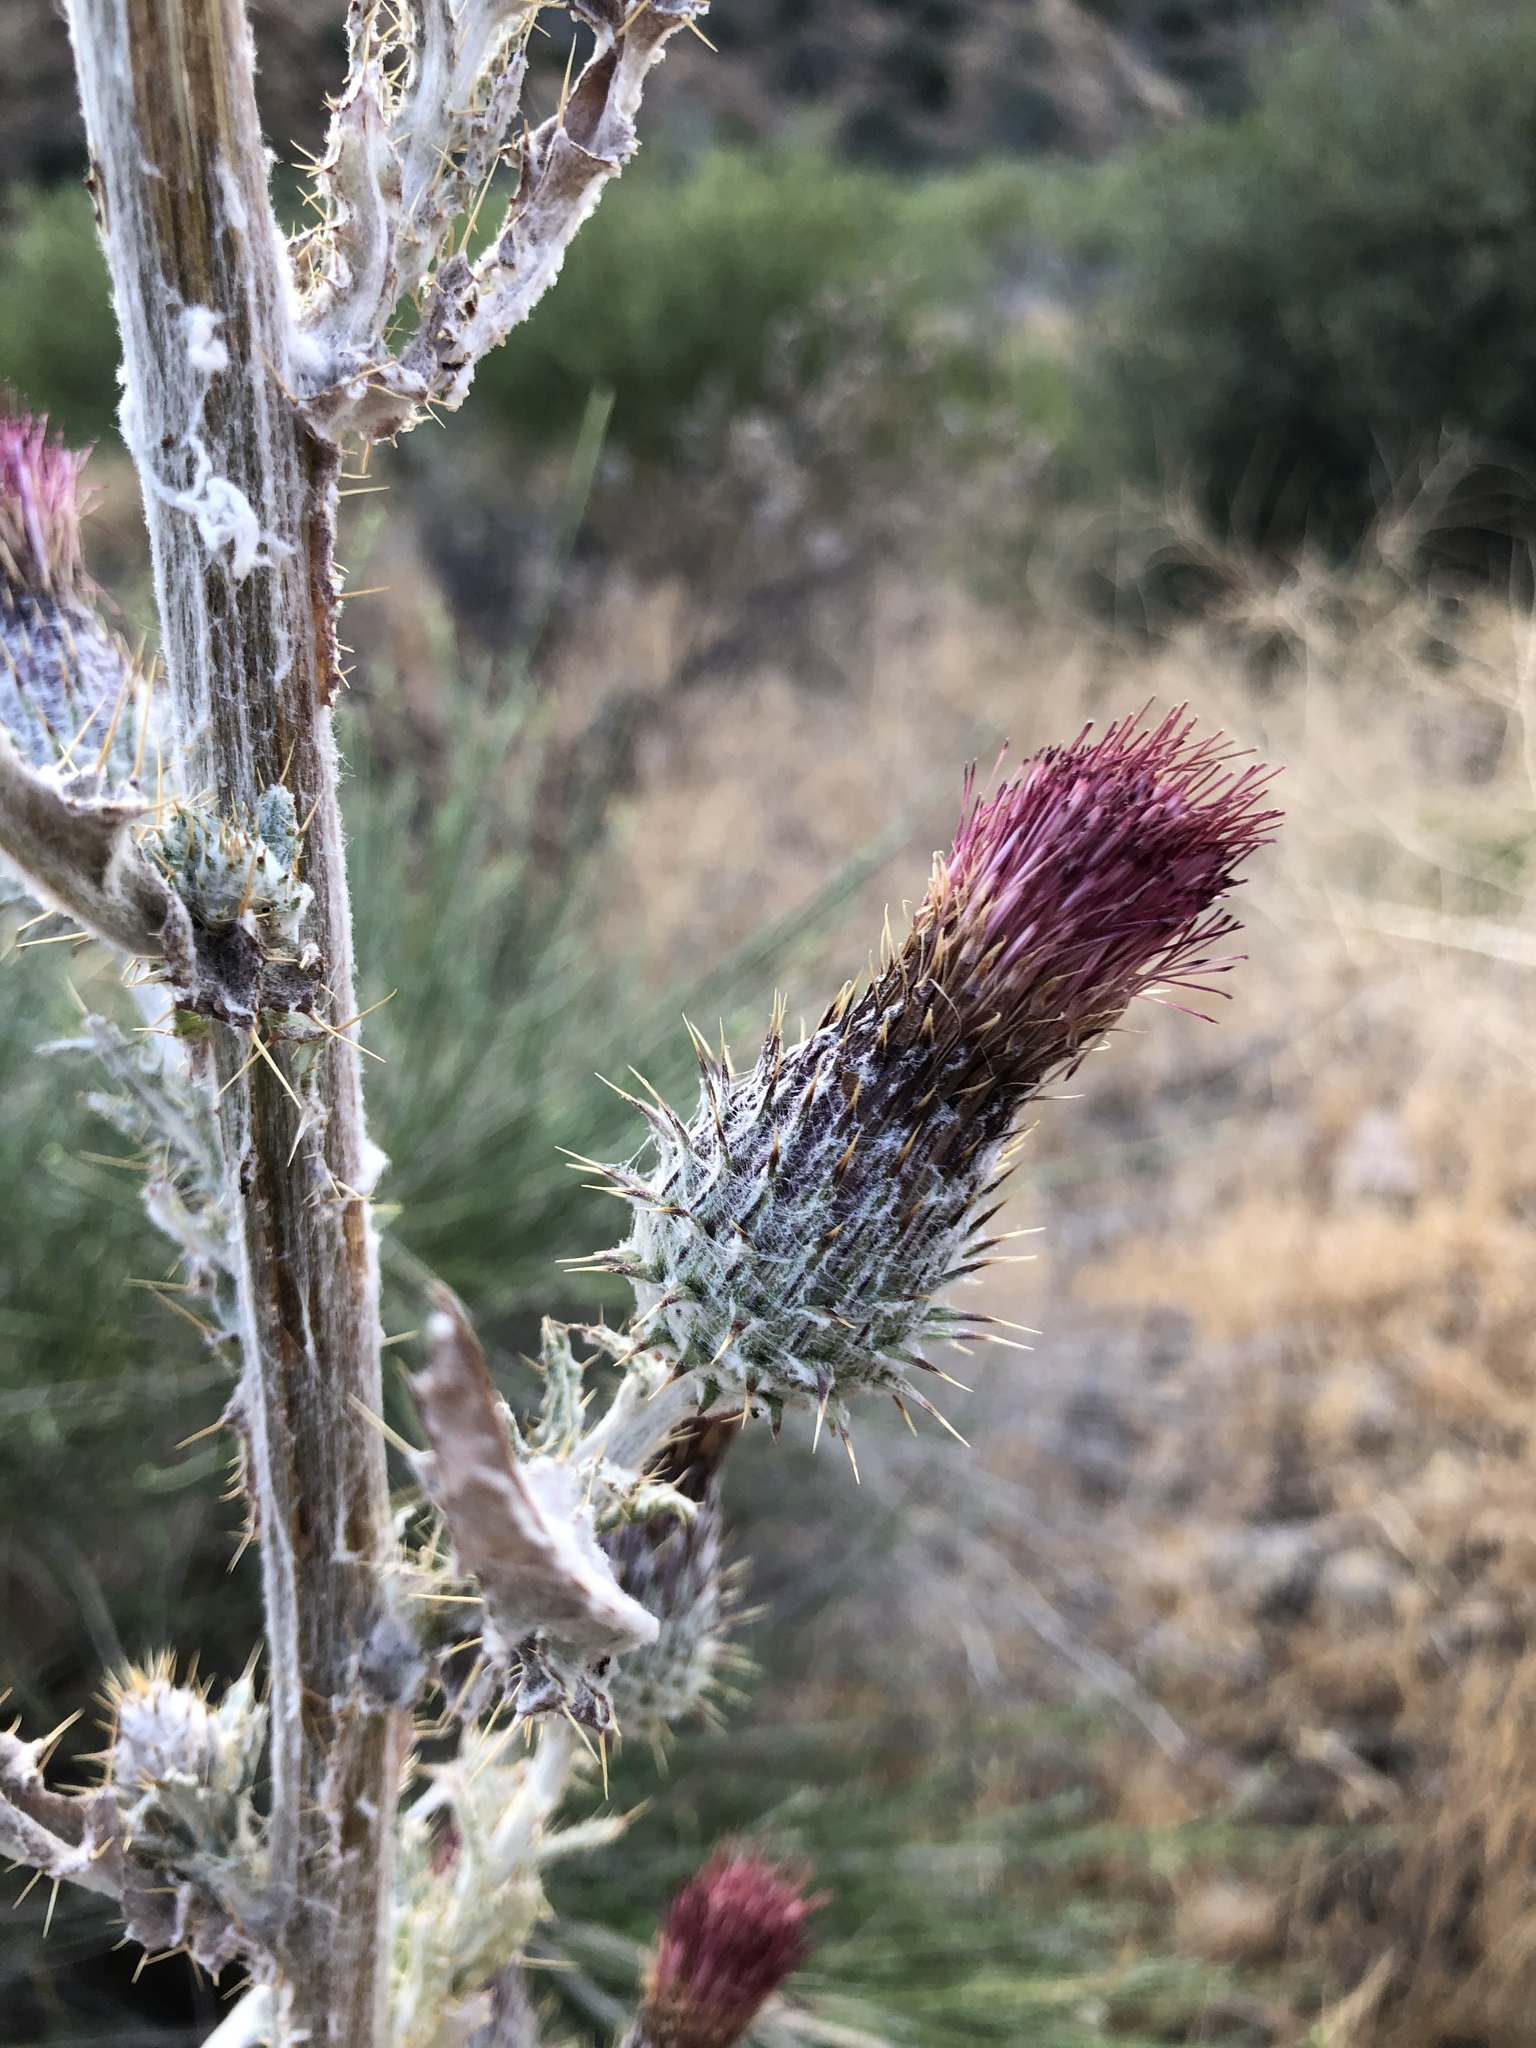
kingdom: Plantae
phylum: Tracheophyta
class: Magnoliopsida
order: Asterales
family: Asteraceae
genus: Cirsium
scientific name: Cirsium occidentale
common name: Western thistle
